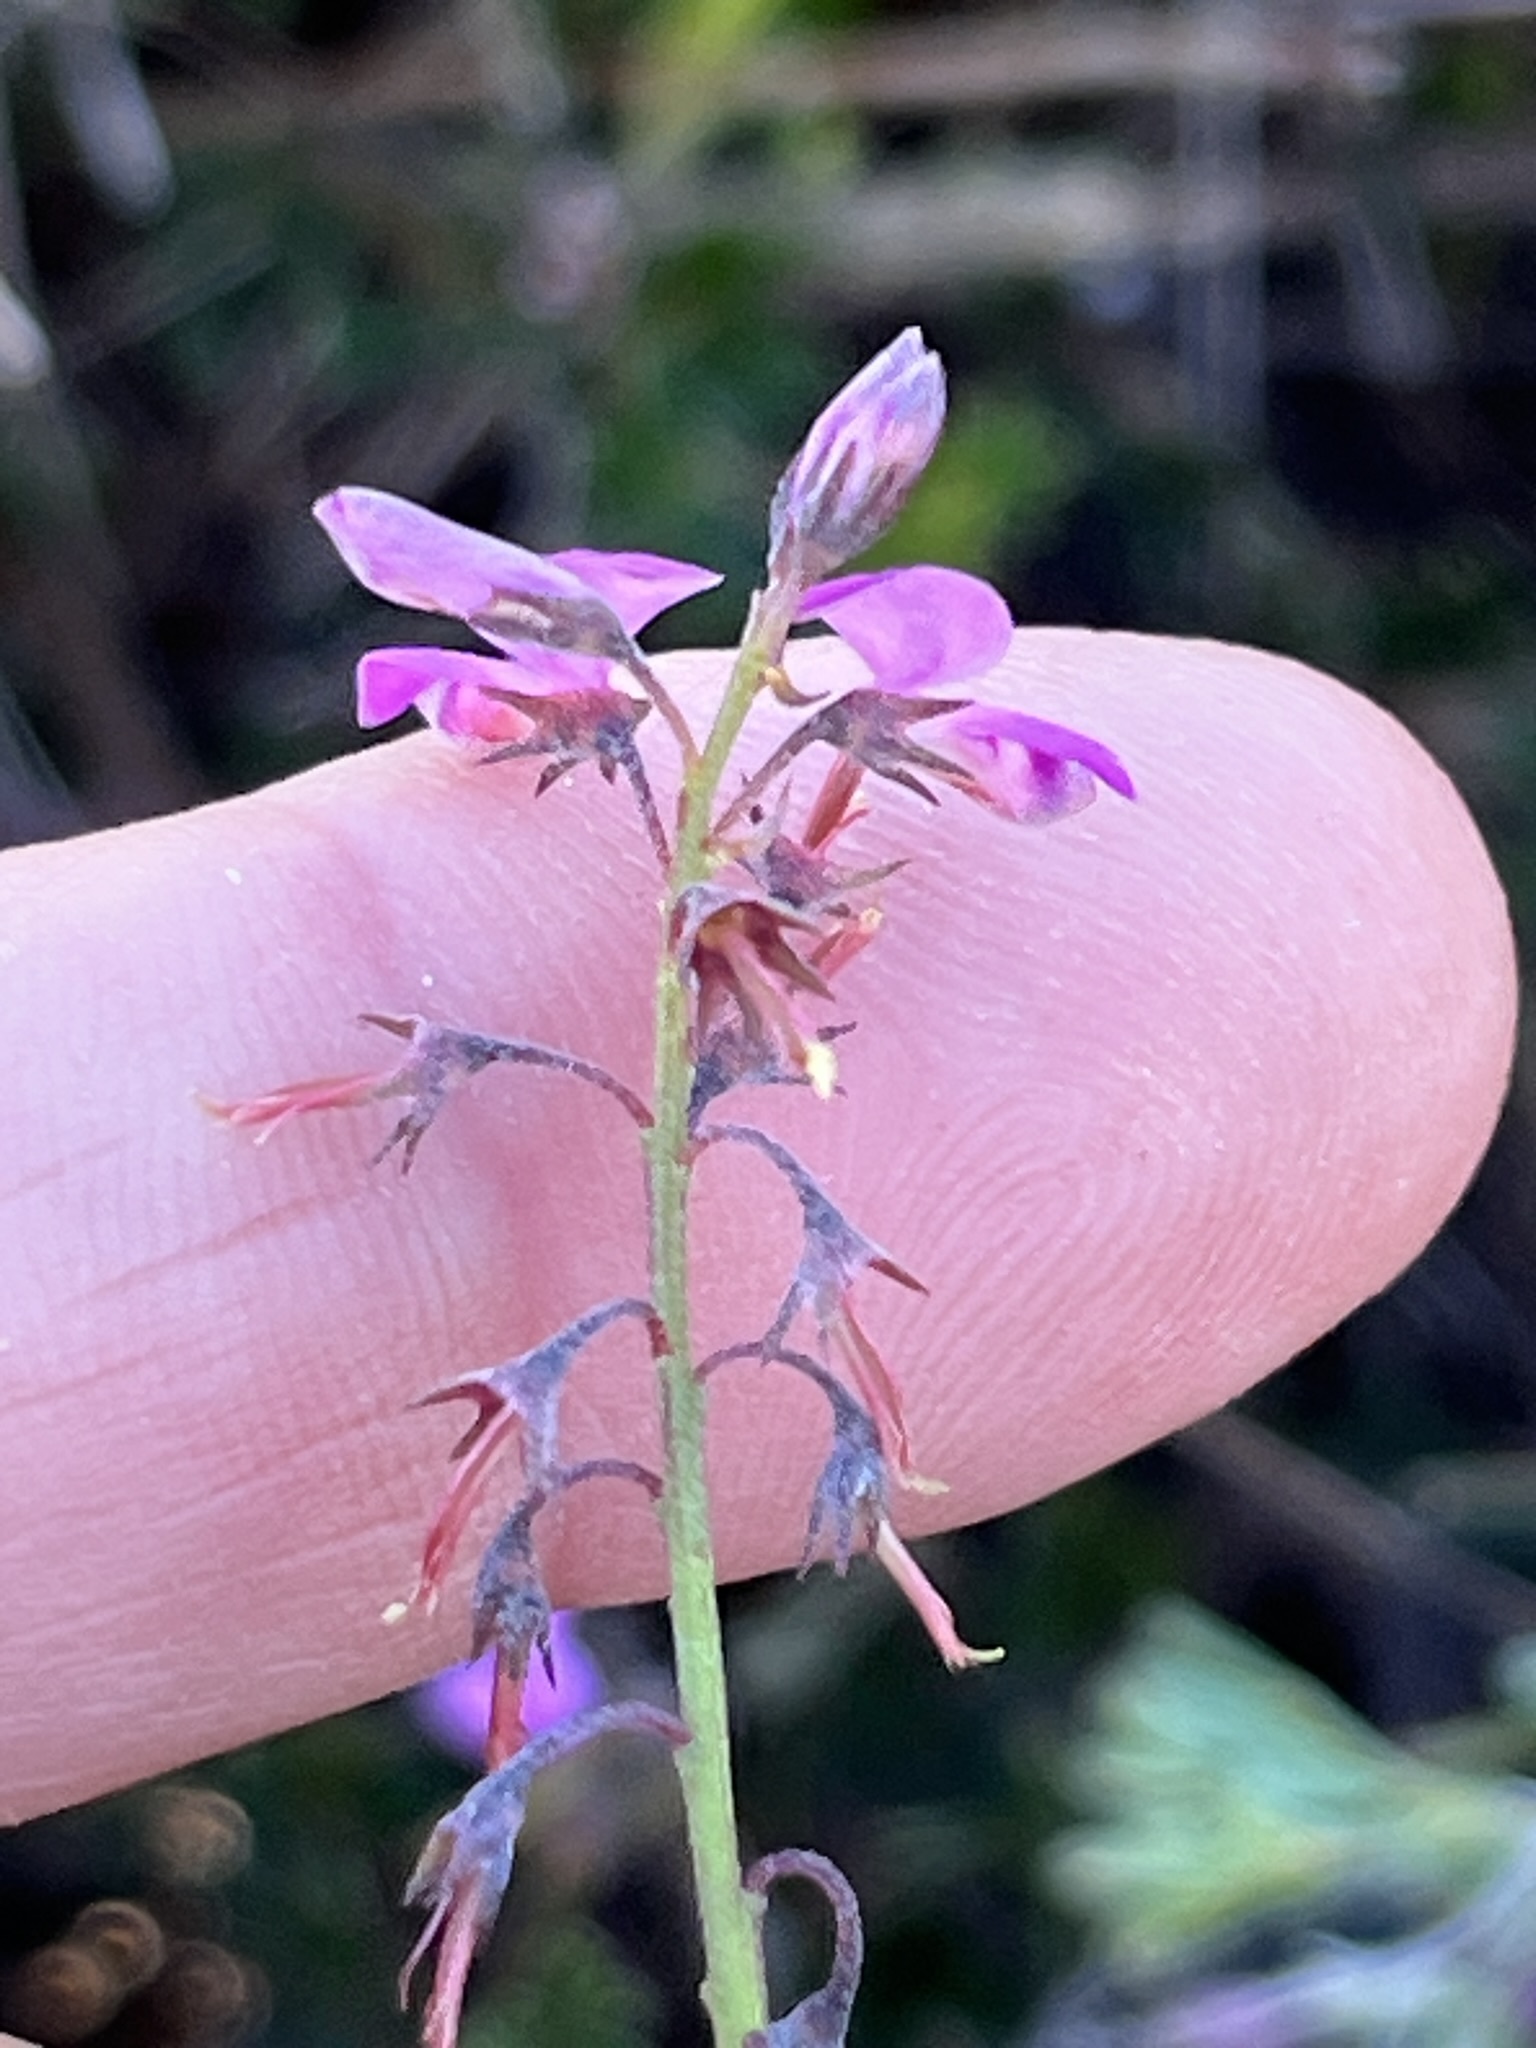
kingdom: Plantae
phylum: Tracheophyta
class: Magnoliopsida
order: Fabales
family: Fabaceae
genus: Indigofera
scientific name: Indigofera angustifolia
